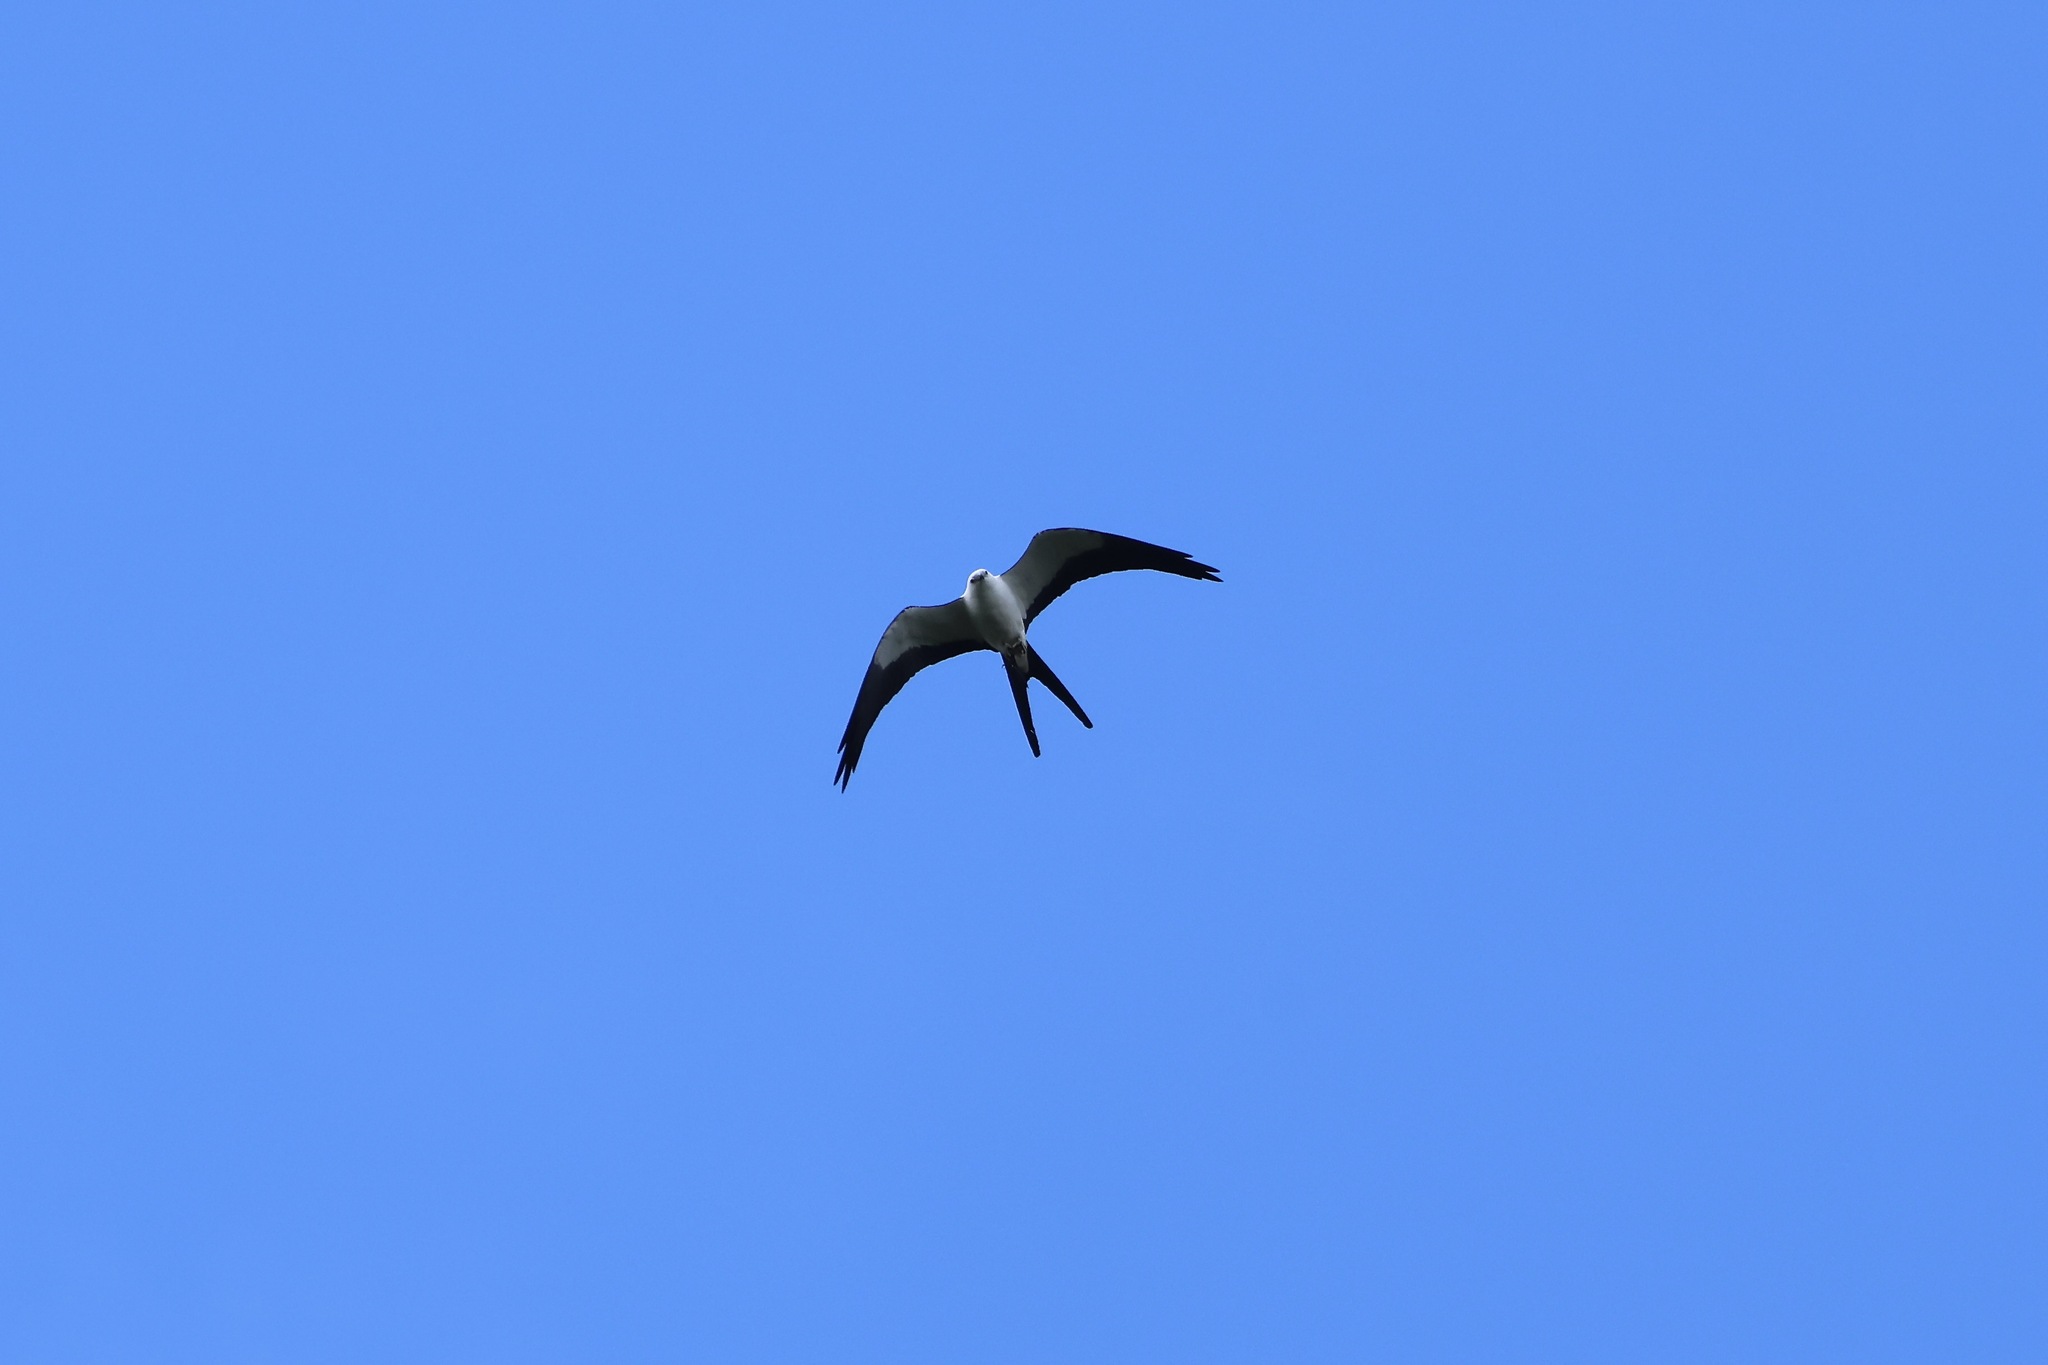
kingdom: Animalia
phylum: Chordata
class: Aves
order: Accipitriformes
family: Accipitridae
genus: Elanoides
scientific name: Elanoides forficatus
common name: Swallow-tailed kite
